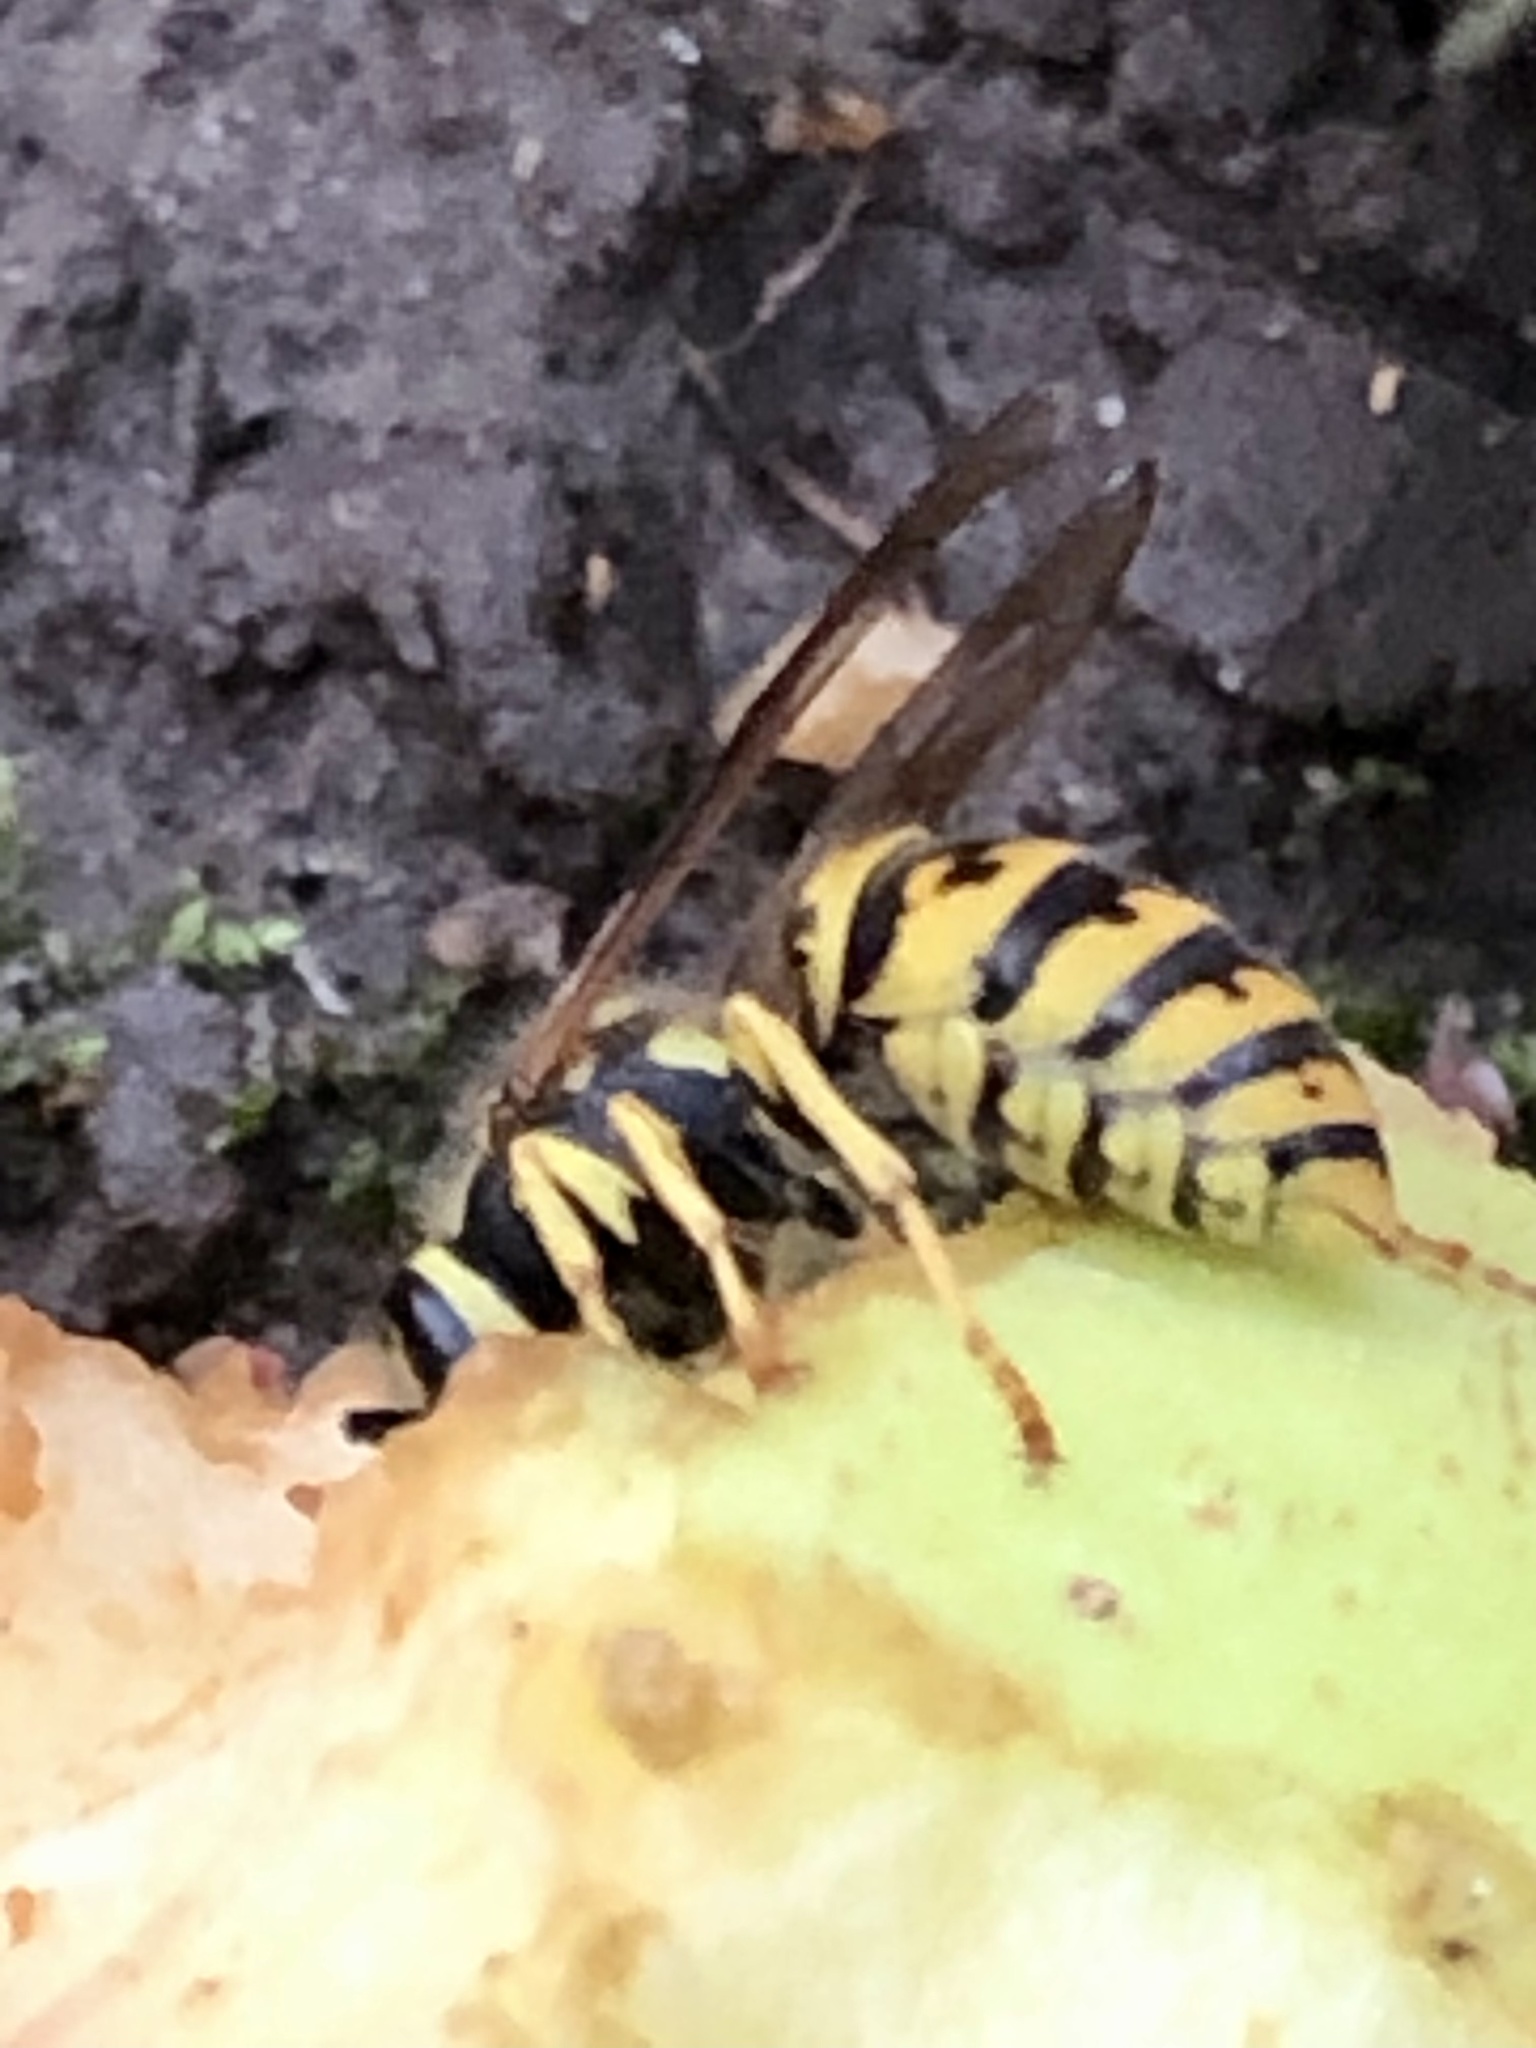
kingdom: Animalia
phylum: Arthropoda
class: Insecta
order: Hymenoptera
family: Vespidae
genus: Vespula
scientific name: Vespula germanica
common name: German wasp
